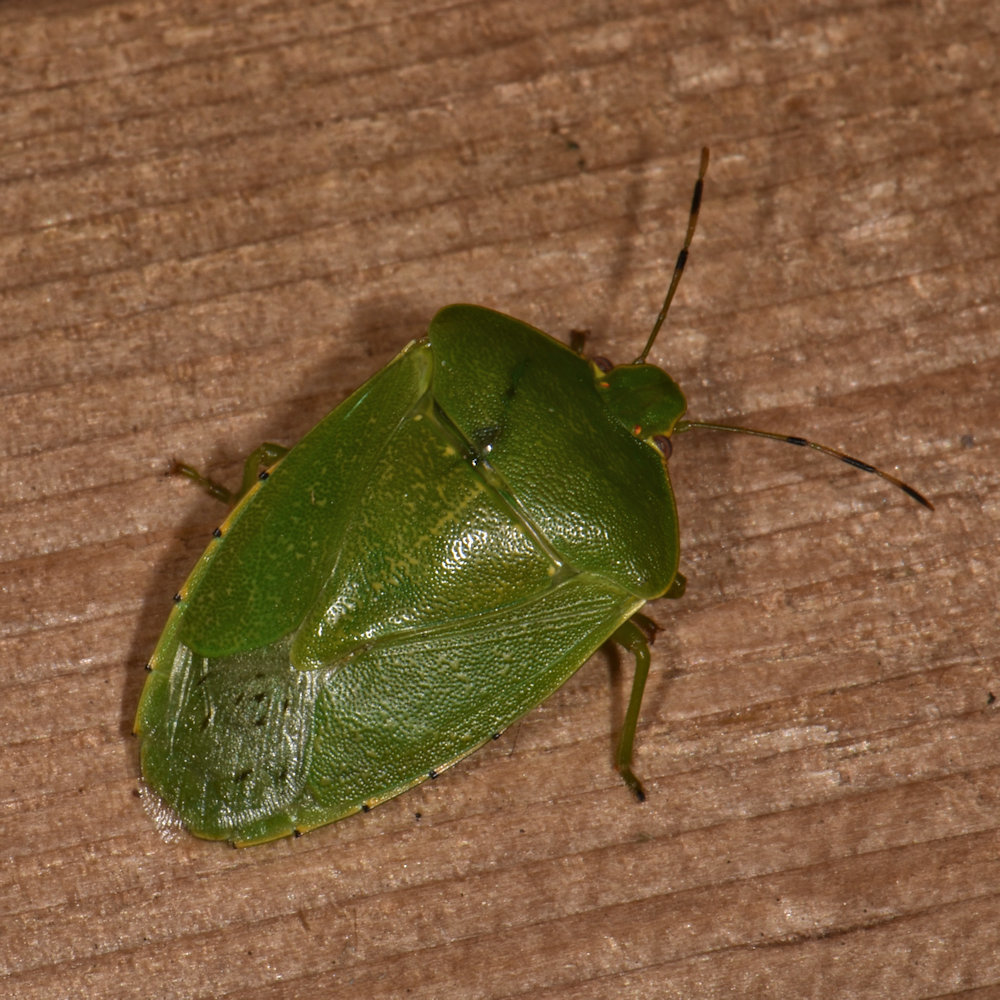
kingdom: Animalia
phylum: Arthropoda
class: Insecta
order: Hemiptera
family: Pentatomidae
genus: Chinavia
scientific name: Chinavia hilaris
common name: Green stink bug
